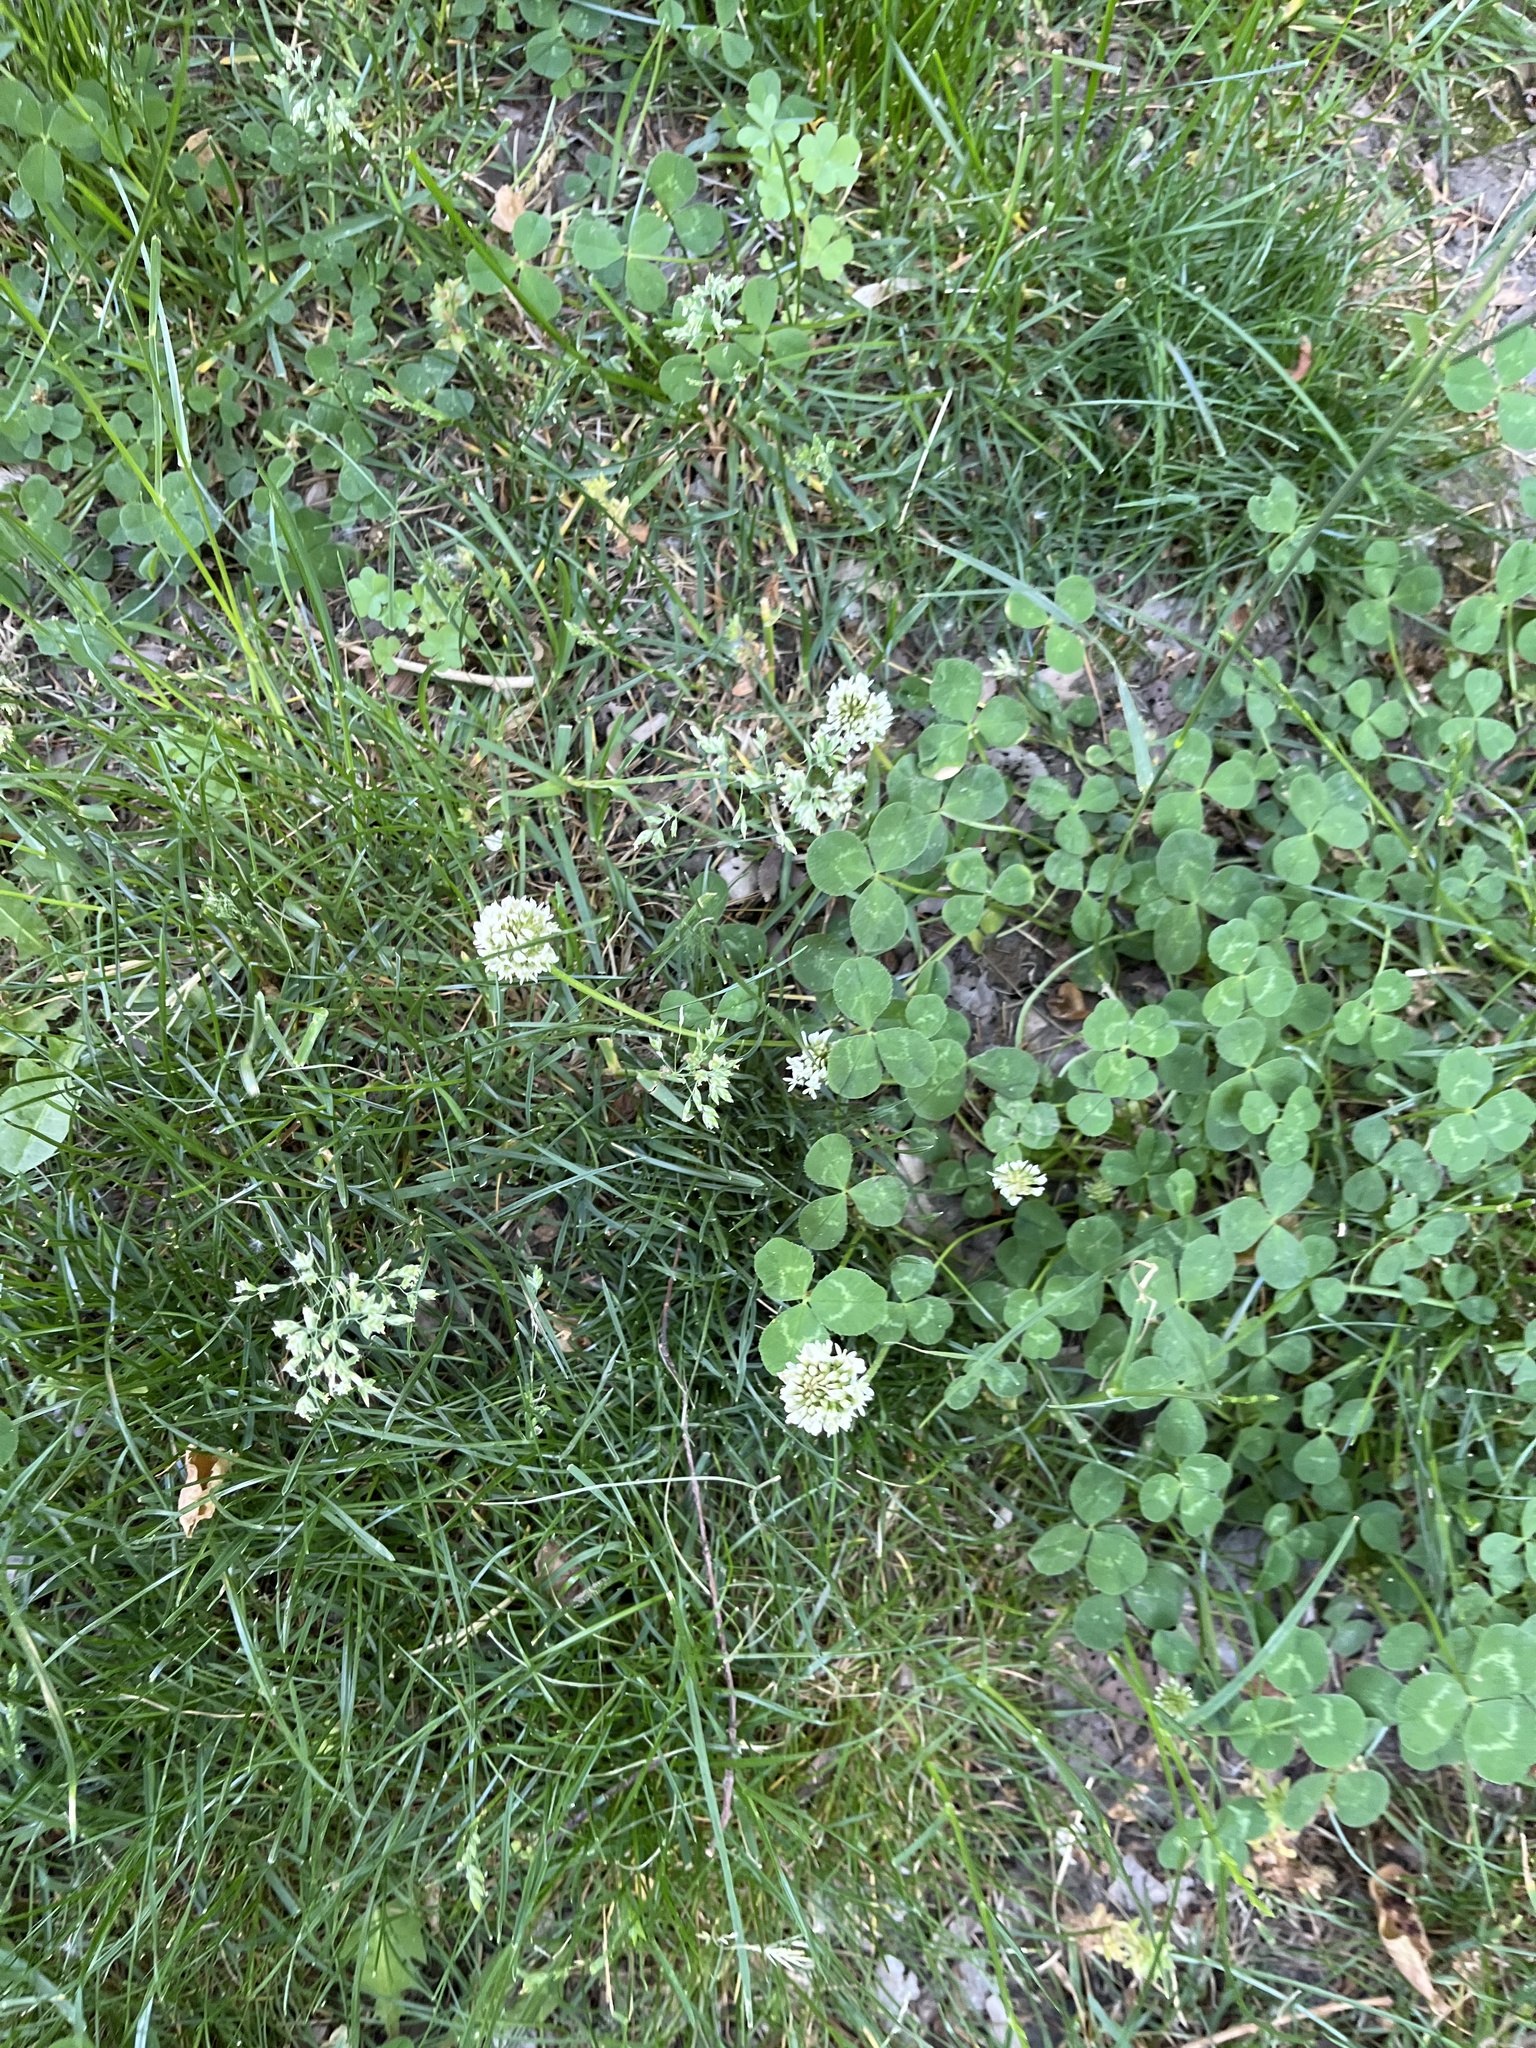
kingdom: Plantae
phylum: Tracheophyta
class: Magnoliopsida
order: Fabales
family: Fabaceae
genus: Trifolium
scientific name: Trifolium repens
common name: White clover
